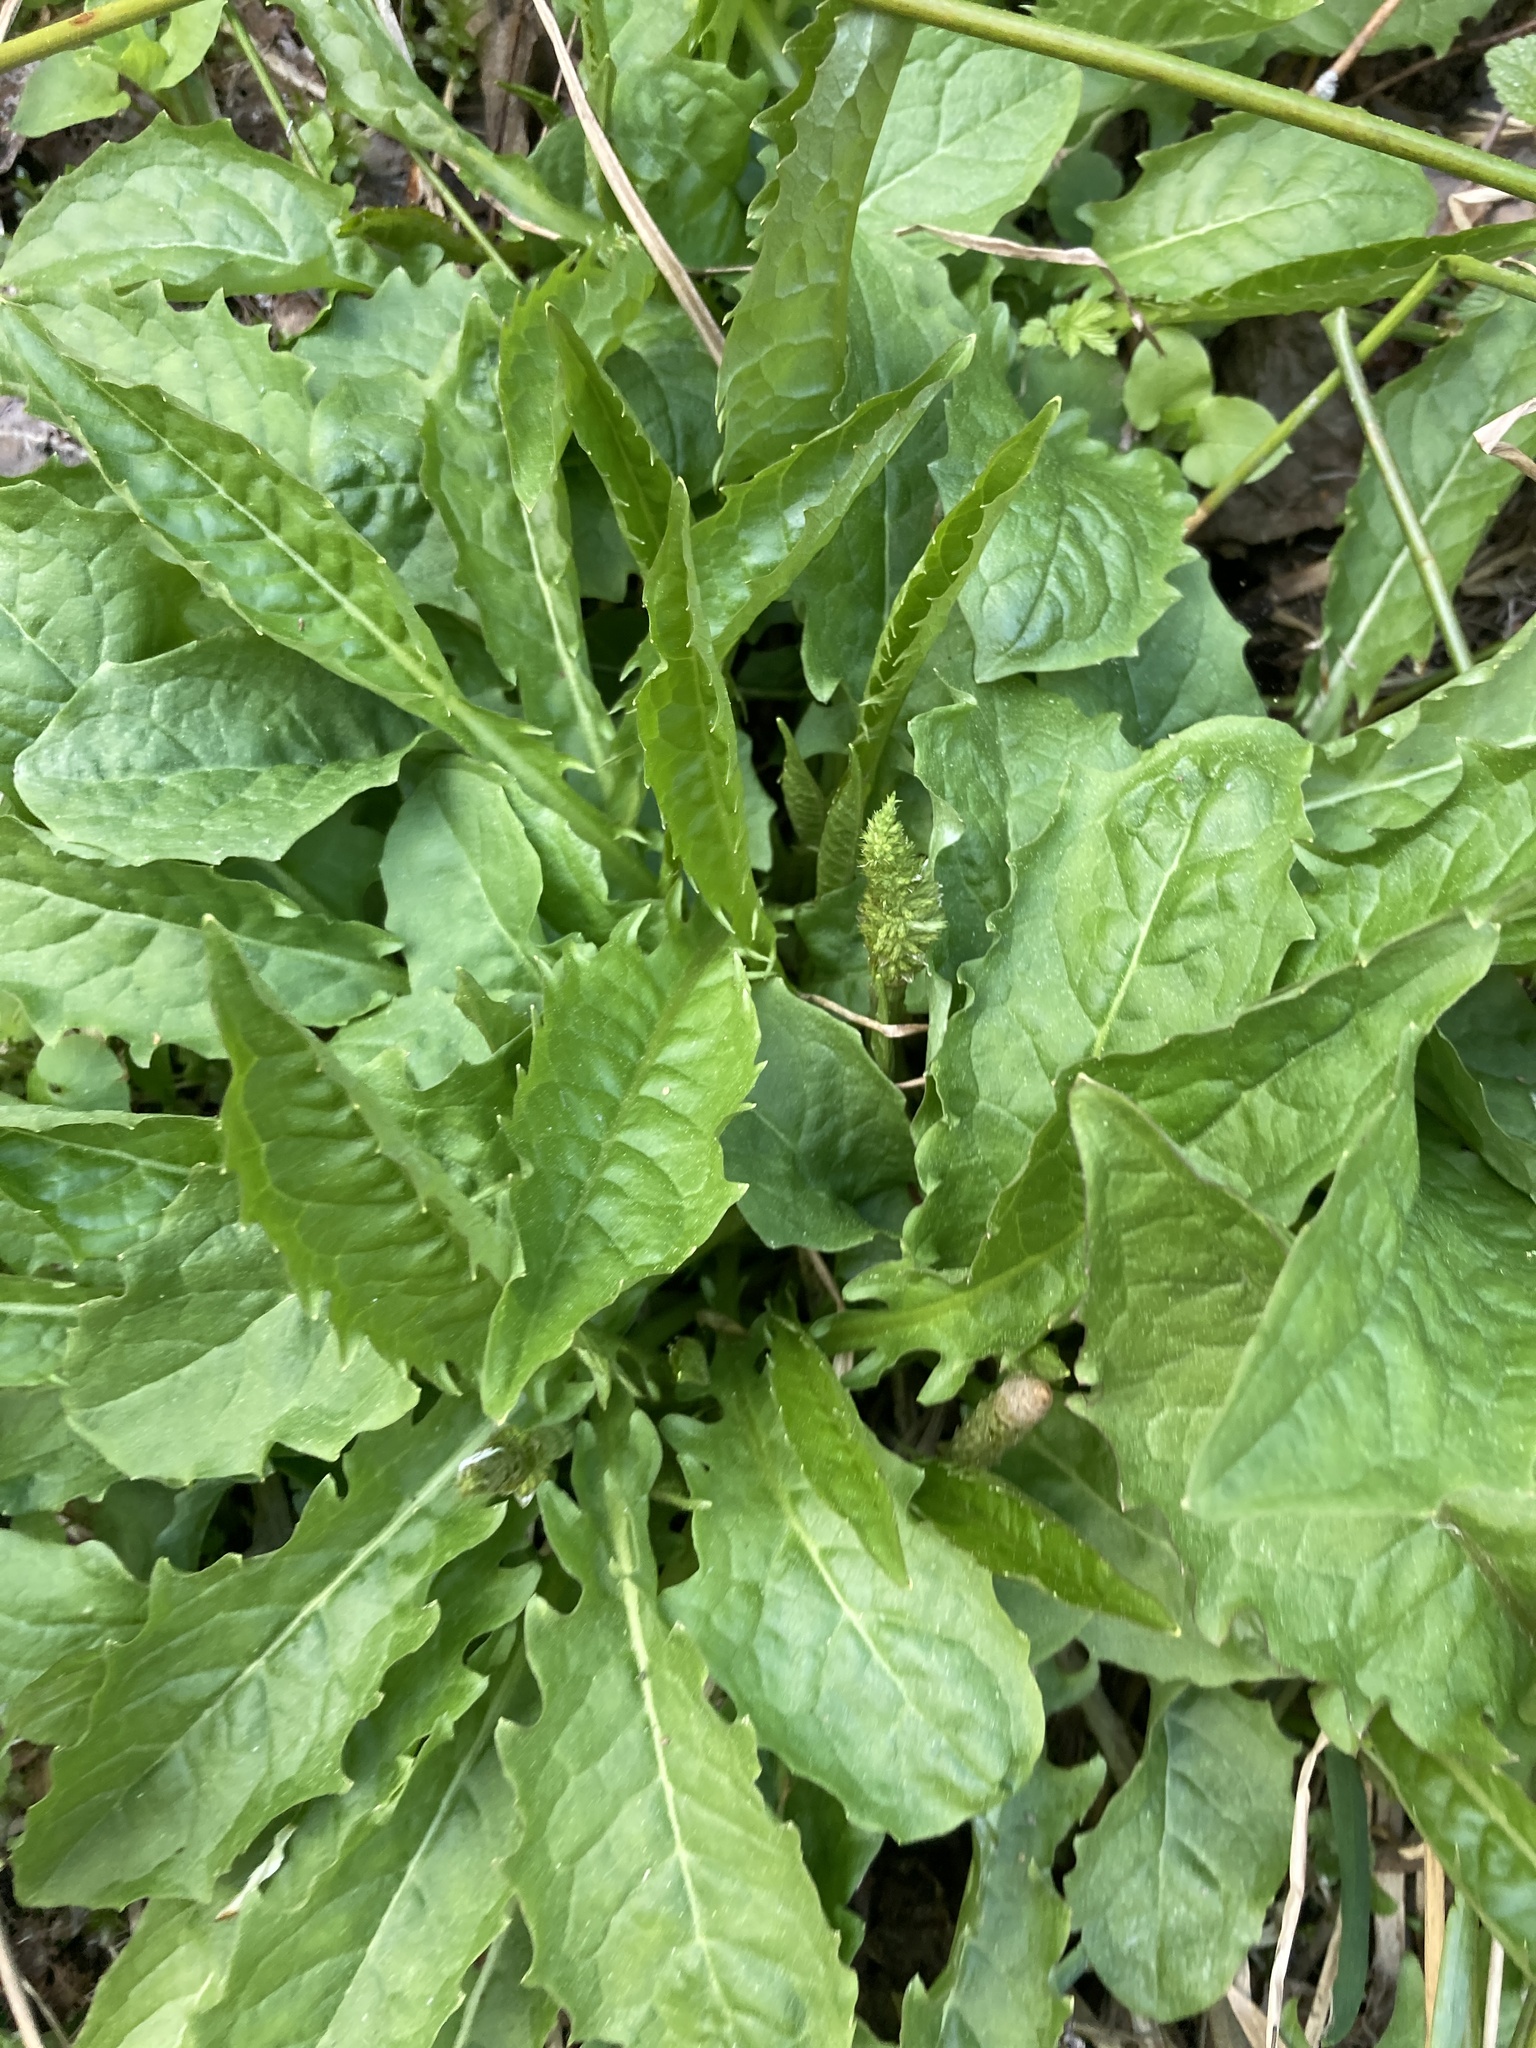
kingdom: Plantae
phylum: Tracheophyta
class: Magnoliopsida
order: Asterales
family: Asteraceae
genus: Crepis
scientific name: Crepis paludosa
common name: Marsh hawk's-beard
